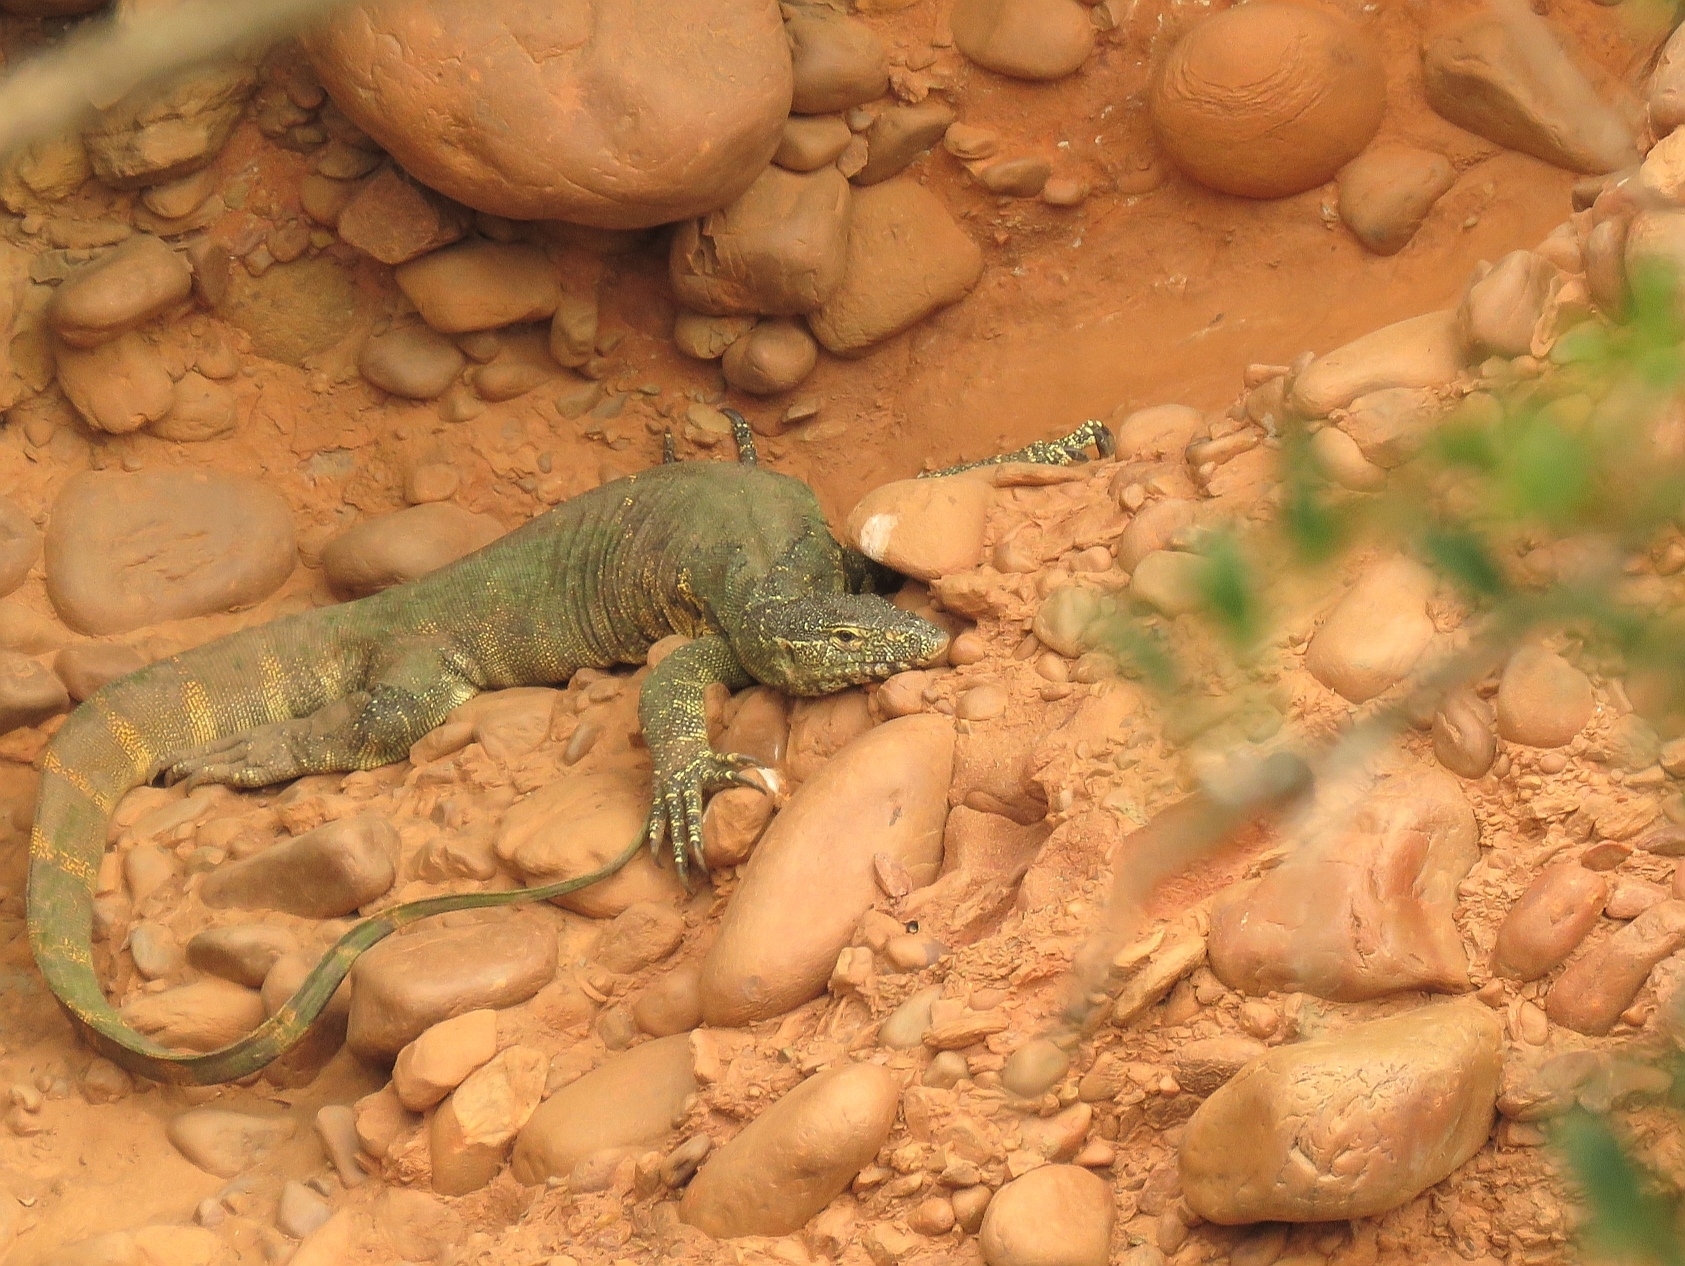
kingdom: Animalia
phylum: Chordata
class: Squamata
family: Varanidae
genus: Varanus
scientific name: Varanus niloticus
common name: Nile monitor
